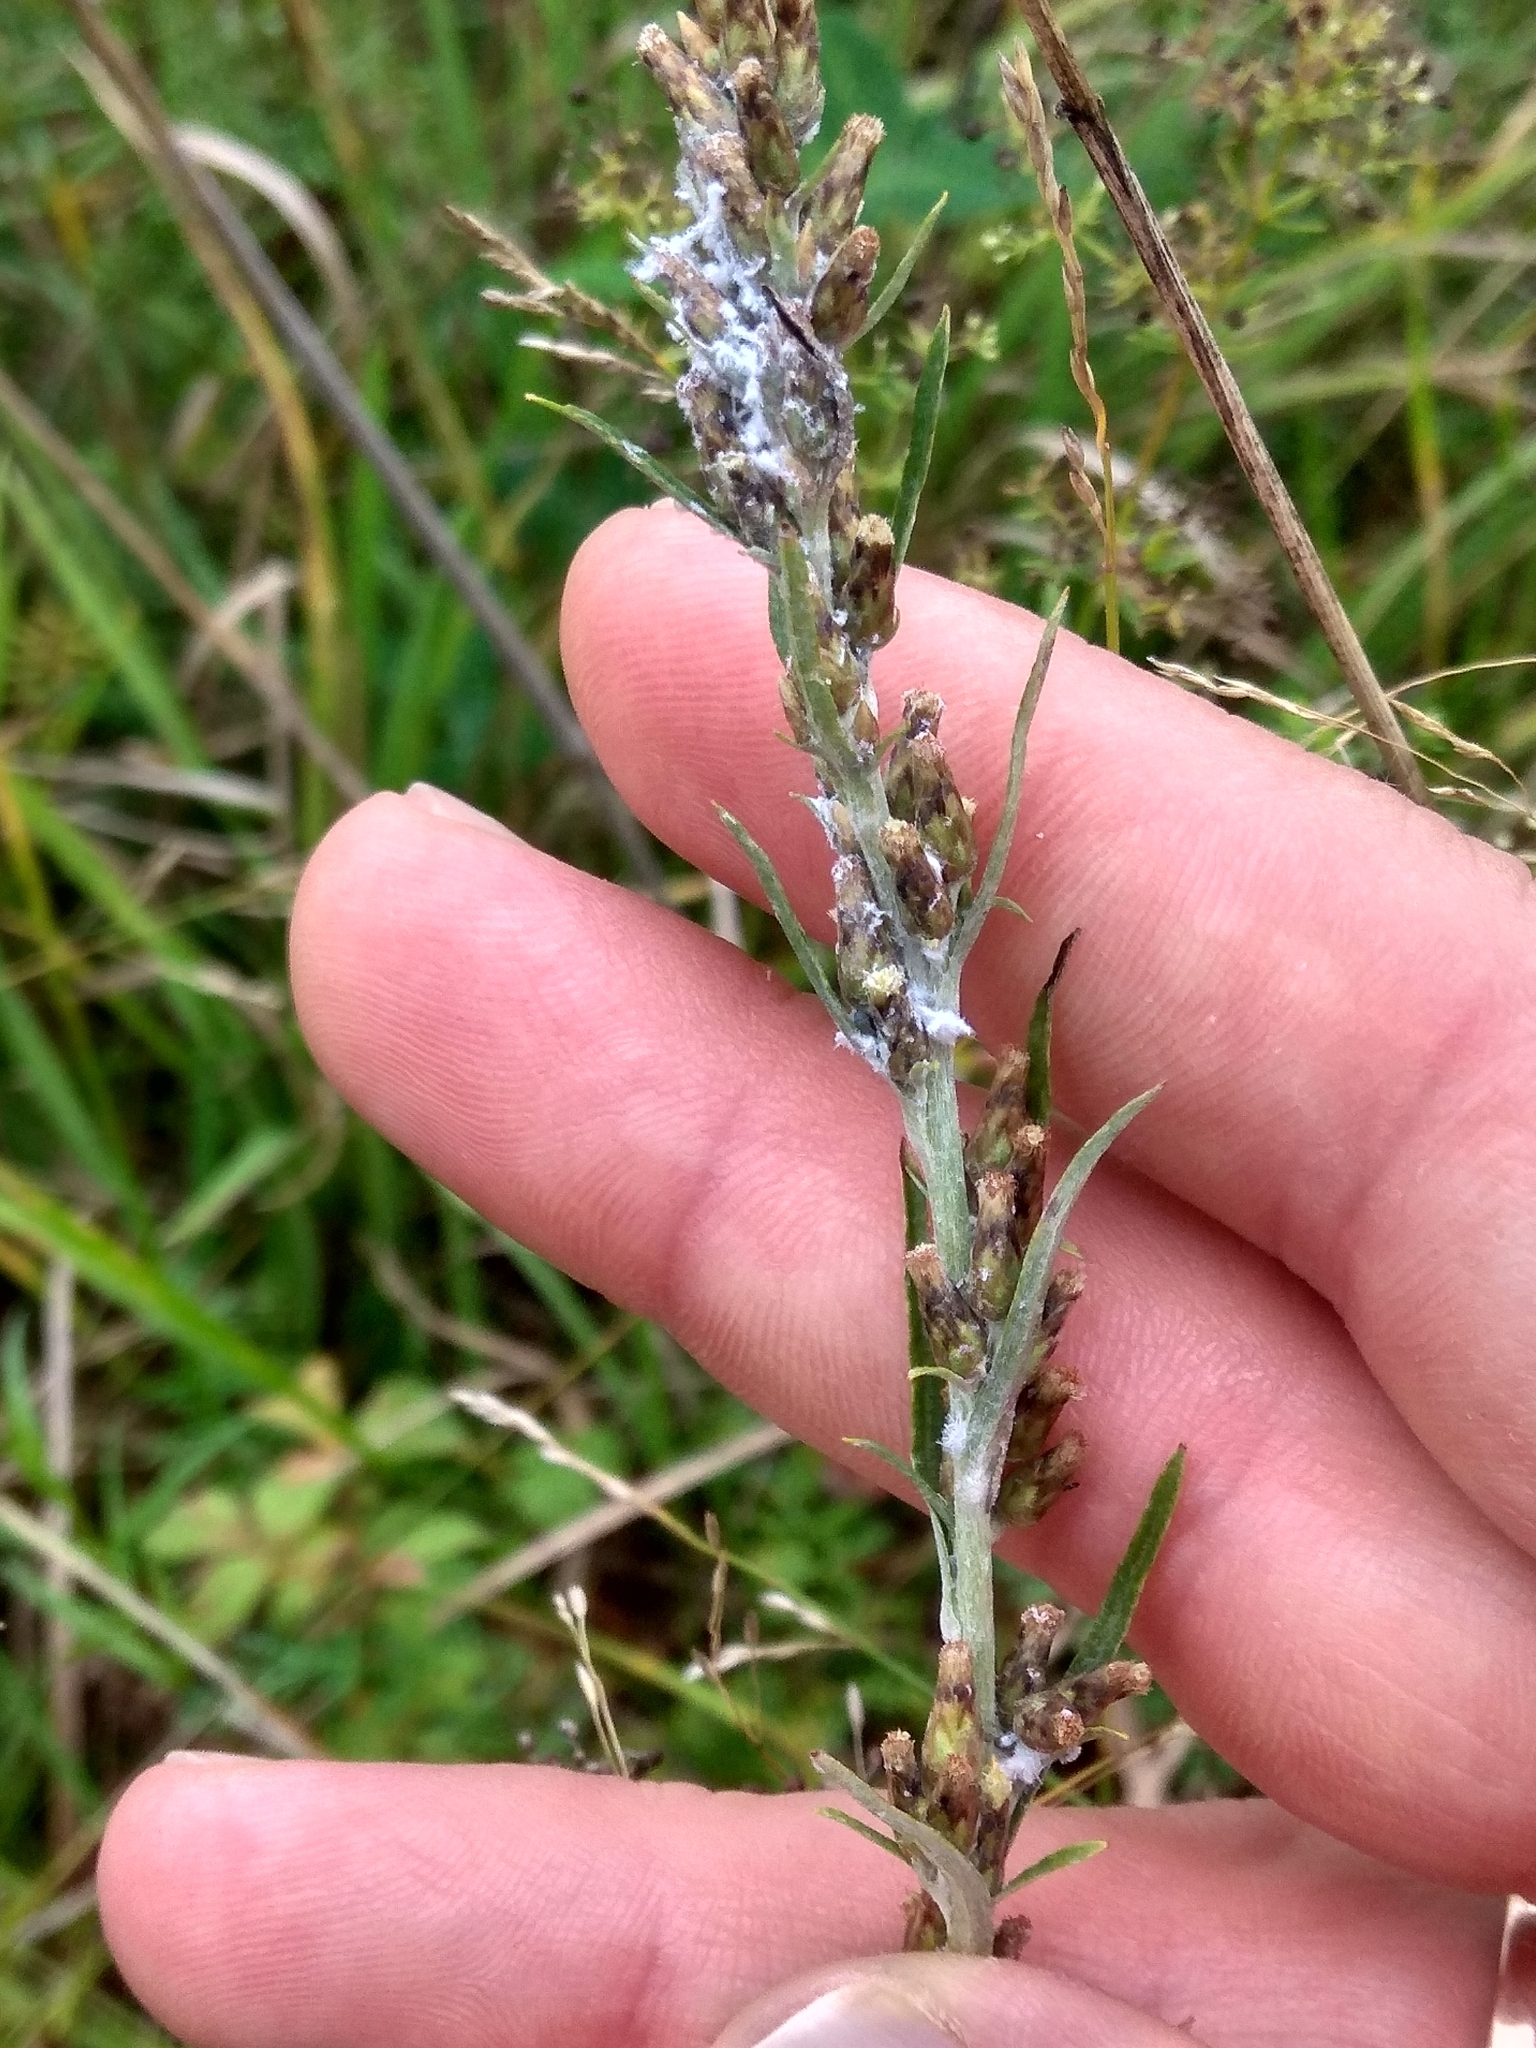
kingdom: Plantae
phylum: Tracheophyta
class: Magnoliopsida
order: Asterales
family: Asteraceae
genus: Omalotheca
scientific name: Omalotheca sylvatica
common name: Heath cudweed
